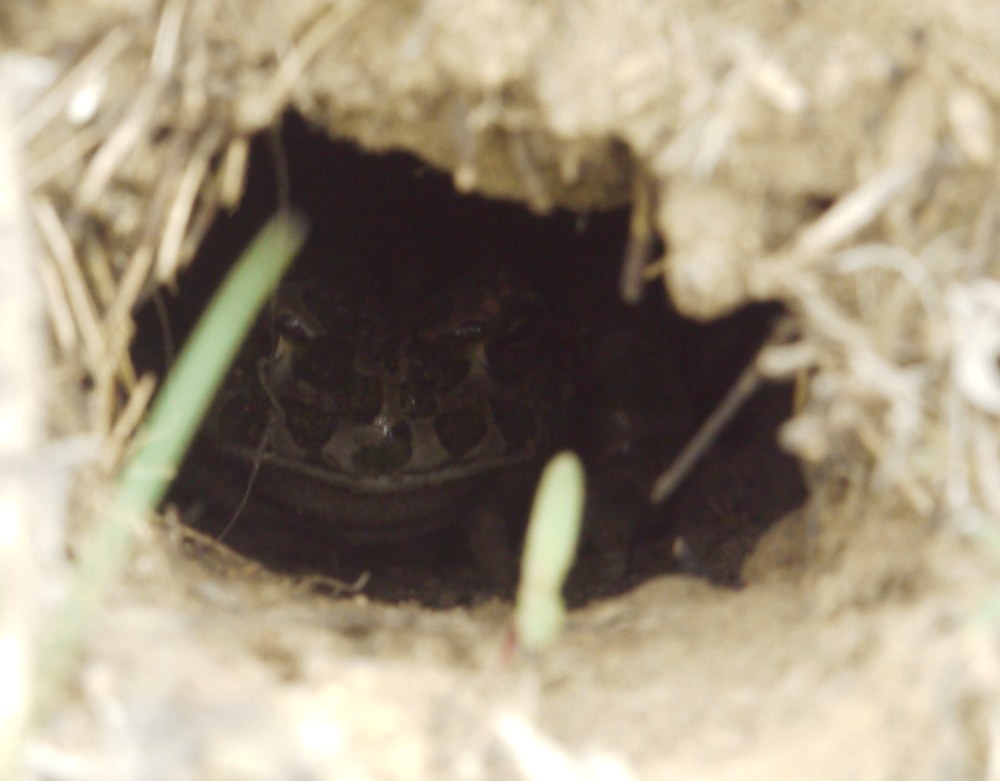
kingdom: Animalia
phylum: Chordata
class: Amphibia
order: Anura
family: Bufonidae
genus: Bufotes
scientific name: Bufotes viridis
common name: European green toad
